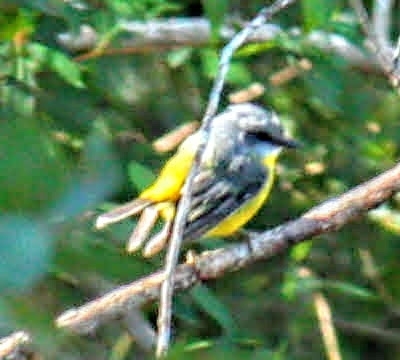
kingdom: Animalia
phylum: Chordata
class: Aves
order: Passeriformes
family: Petroicidae
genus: Eopsaltria
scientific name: Eopsaltria australis
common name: Eastern yellow robin
